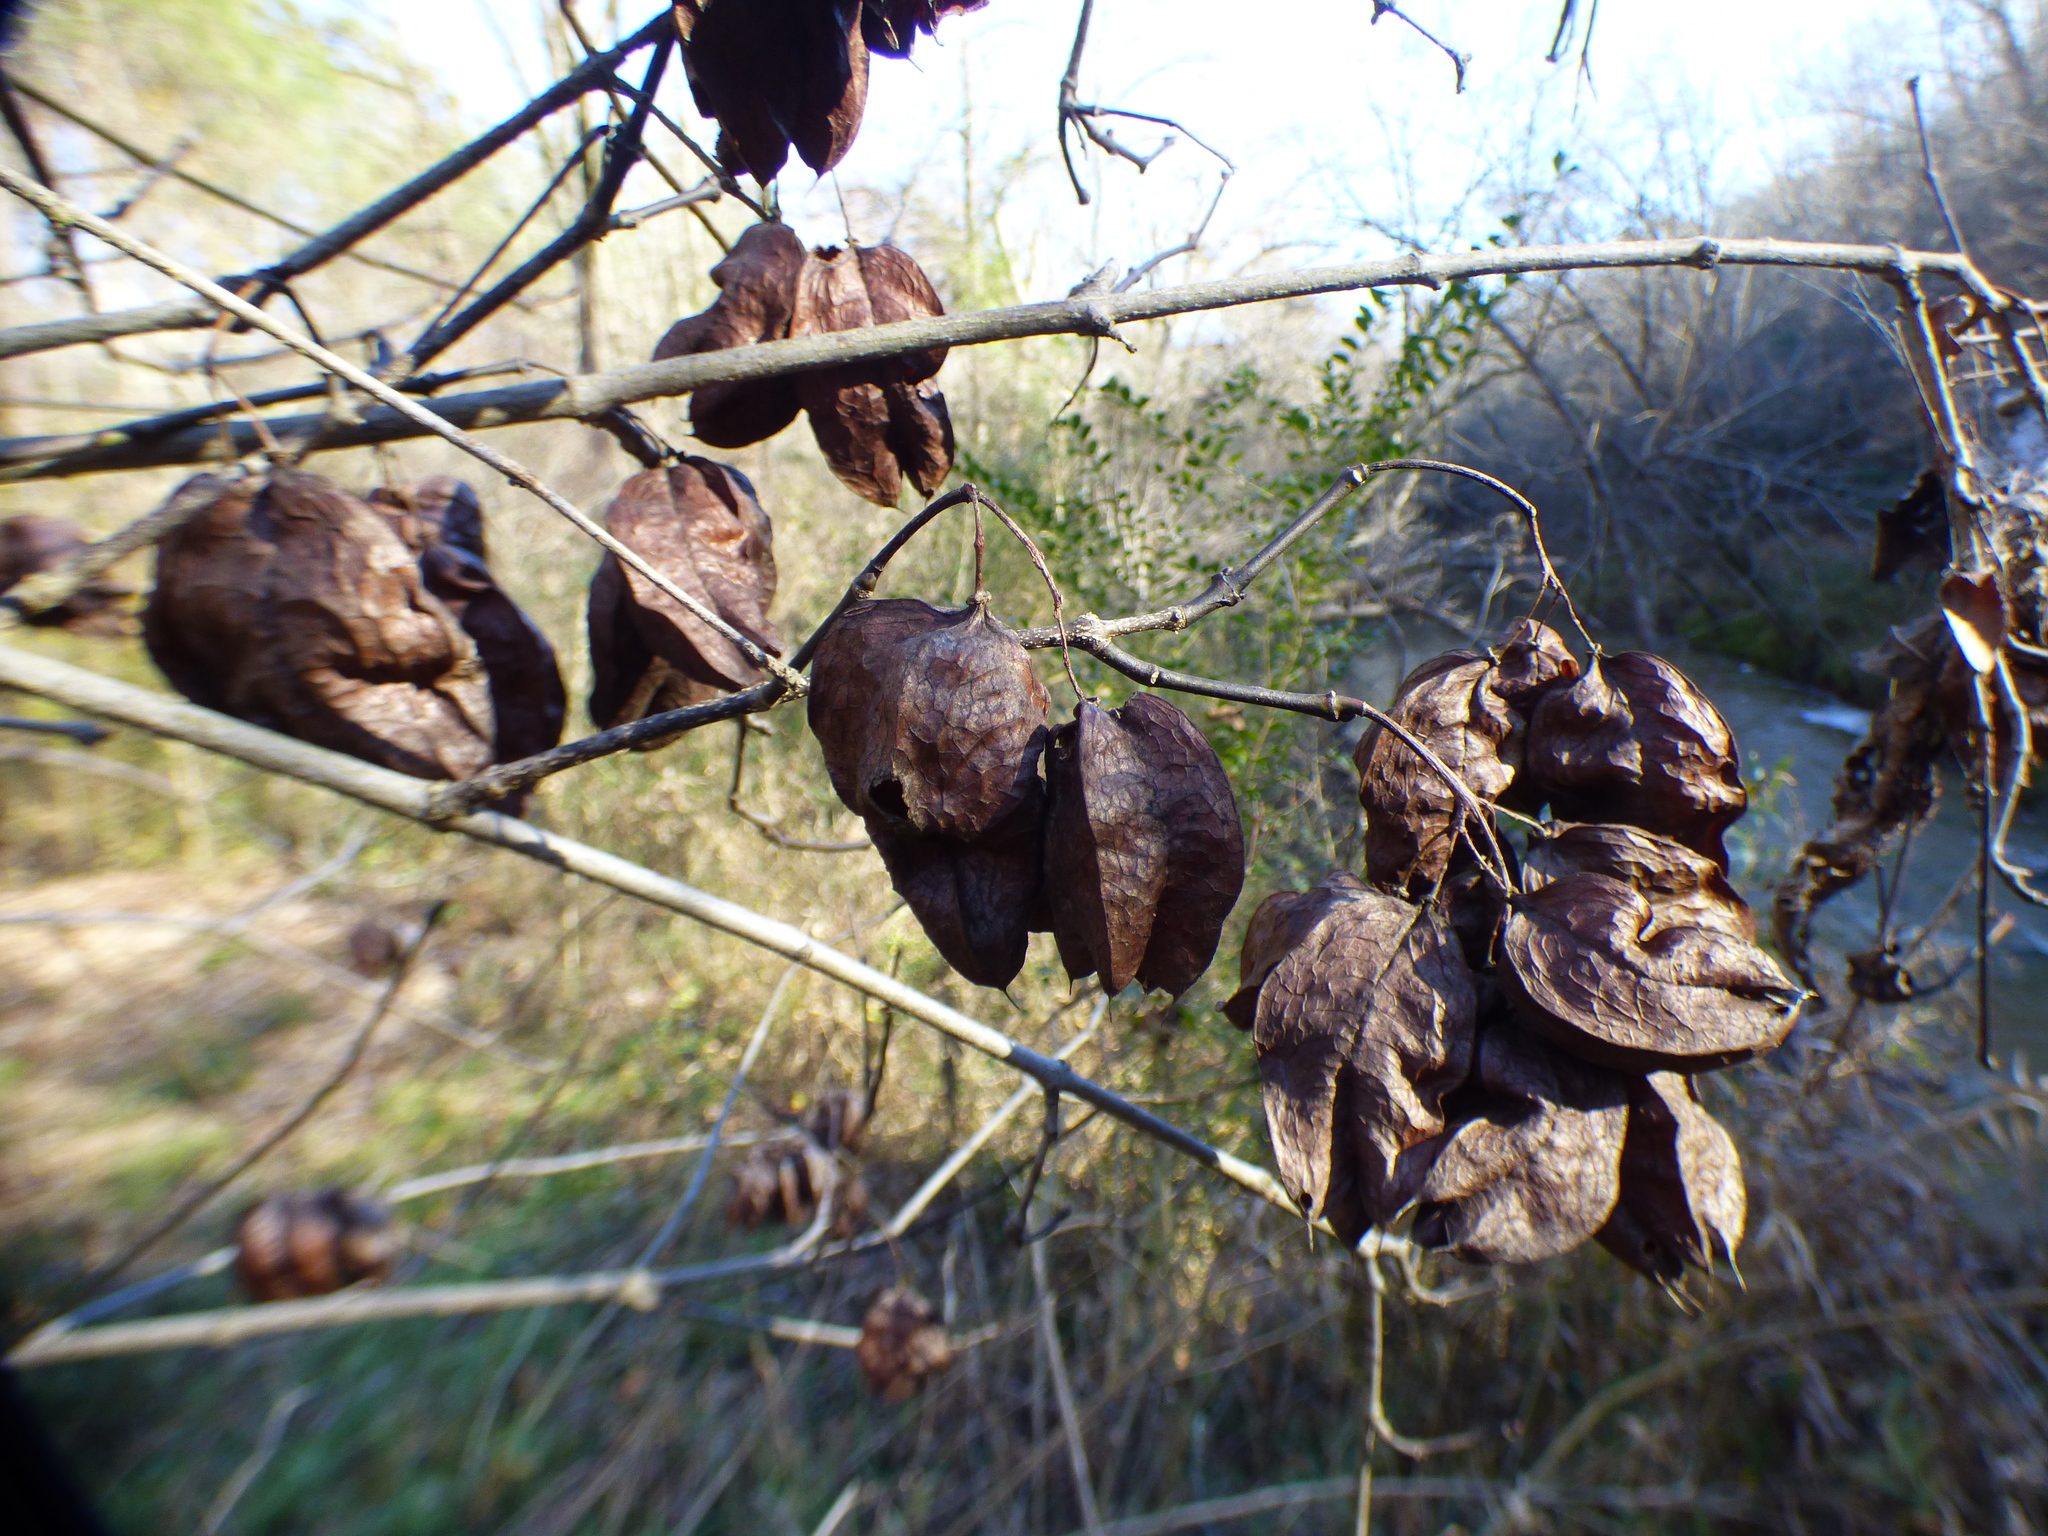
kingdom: Plantae
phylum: Tracheophyta
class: Magnoliopsida
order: Crossosomatales
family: Staphyleaceae
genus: Staphylea
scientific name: Staphylea trifolia
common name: American bladdernut
